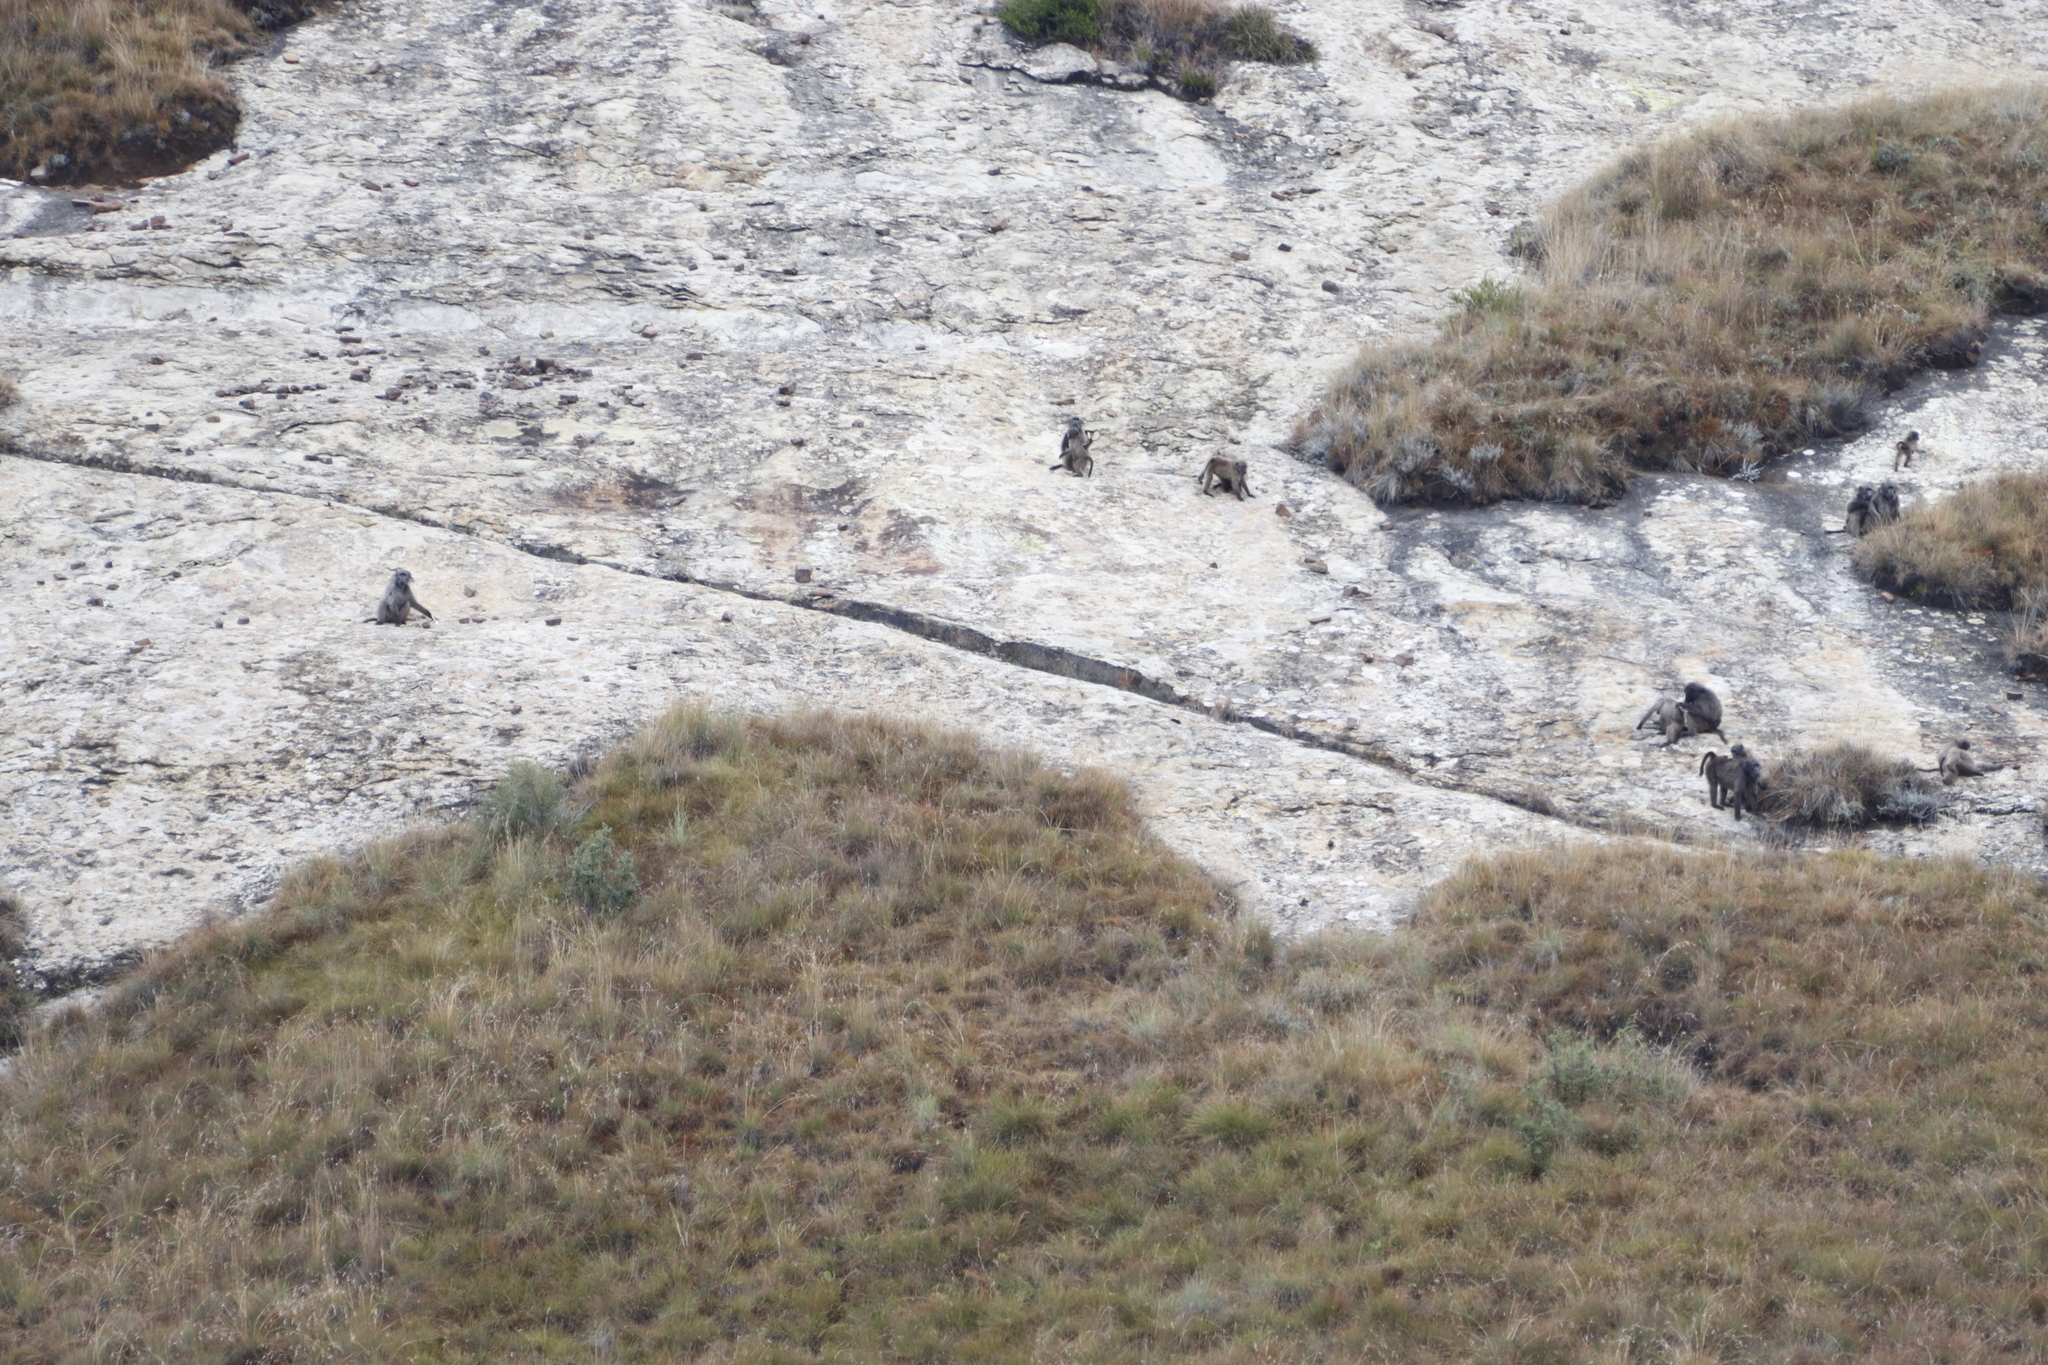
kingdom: Animalia
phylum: Chordata
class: Mammalia
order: Primates
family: Cercopithecidae
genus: Papio
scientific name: Papio ursinus
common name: Chacma baboon
